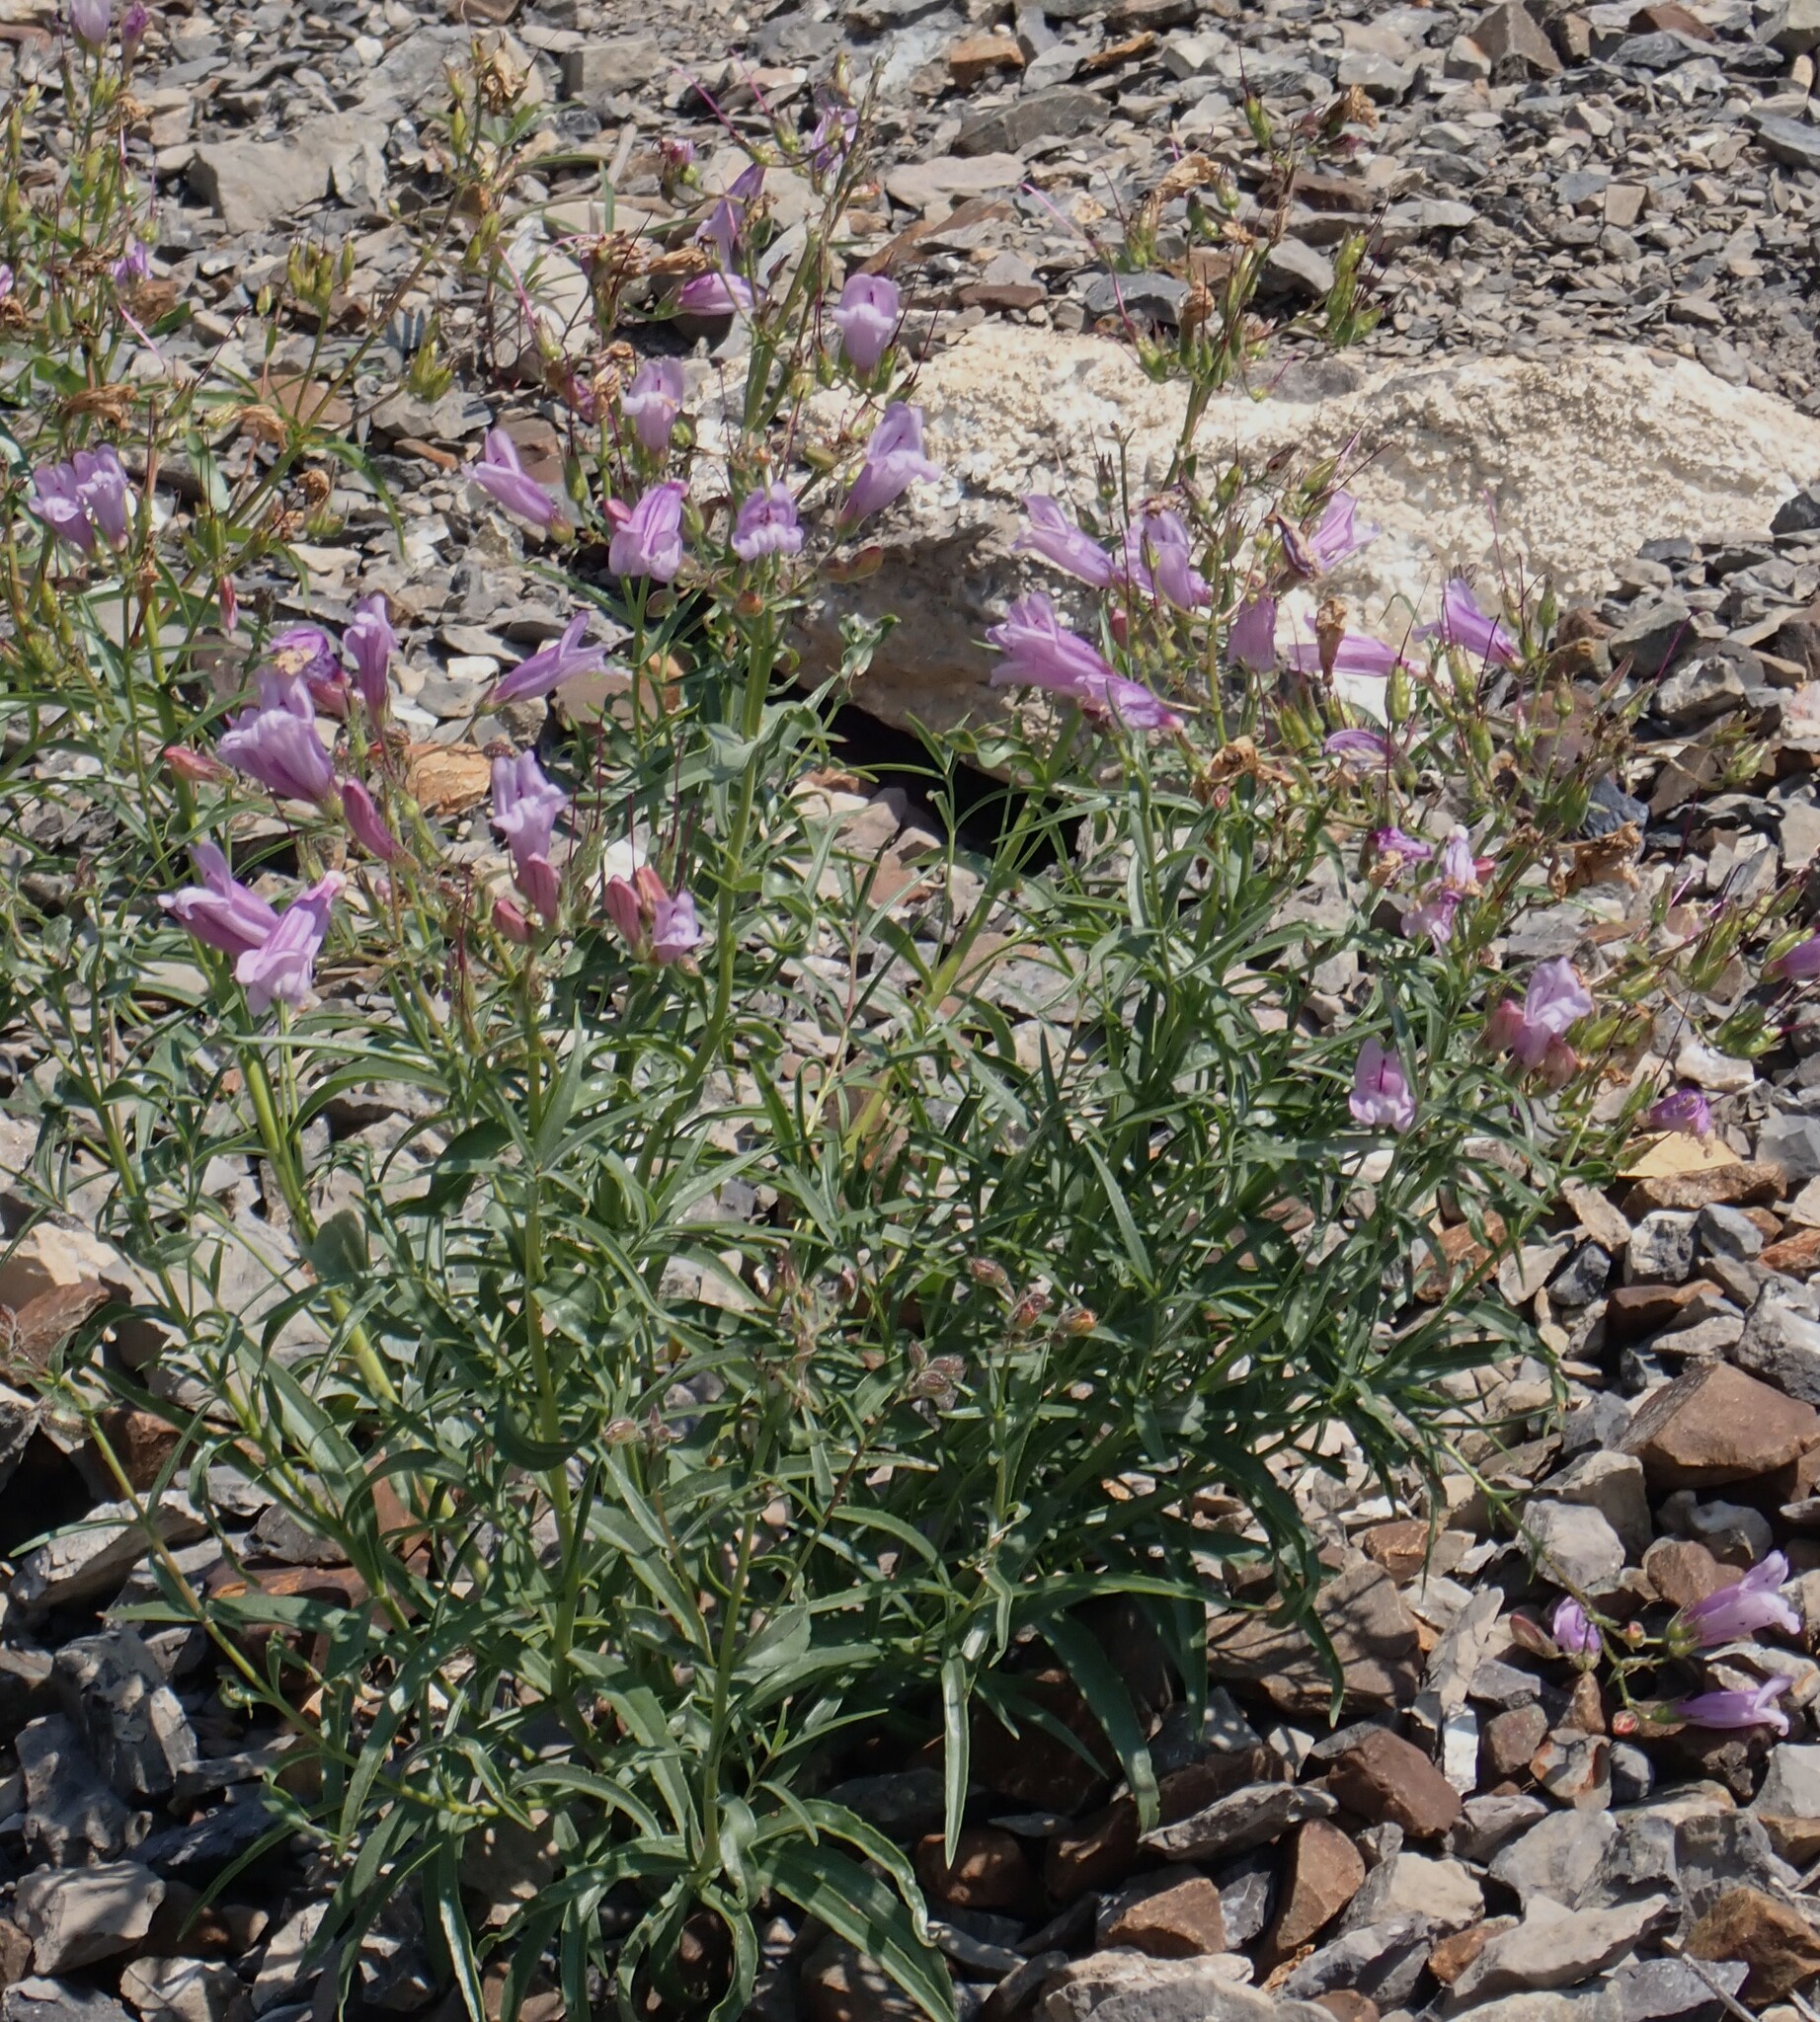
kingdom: Plantae
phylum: Tracheophyta
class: Magnoliopsida
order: Lamiales
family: Plantaginaceae
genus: Penstemon
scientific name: Penstemon lyalli
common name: Lyall's beardtongue
